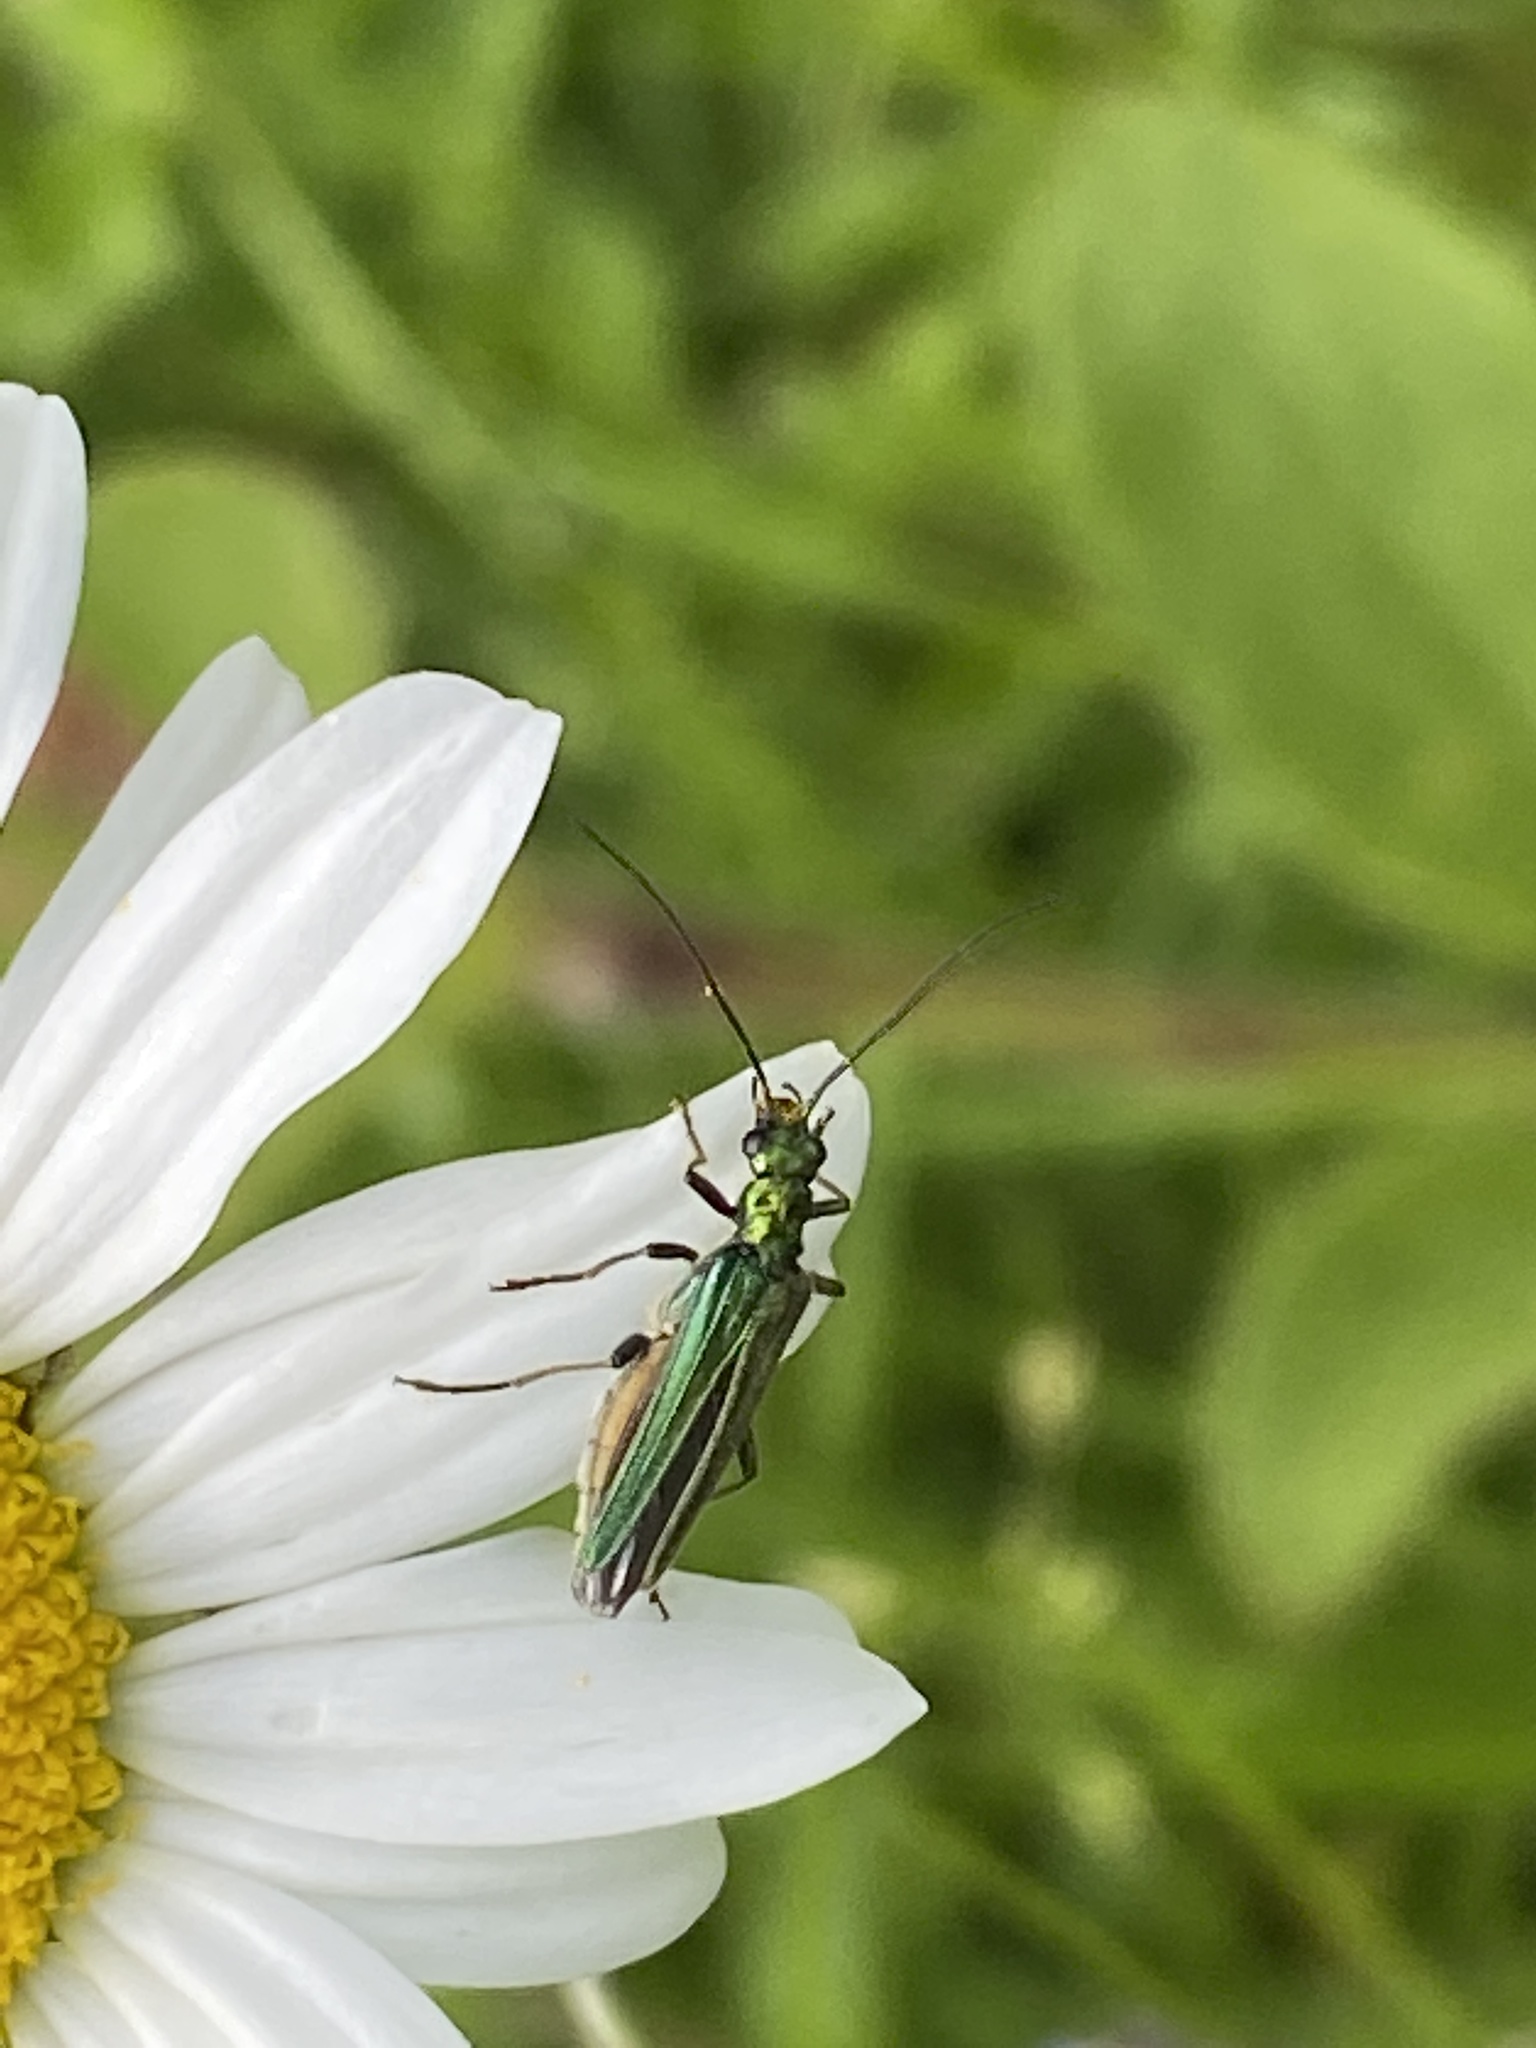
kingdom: Animalia
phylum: Arthropoda
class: Insecta
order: Coleoptera
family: Oedemeridae
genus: Oedemera
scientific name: Oedemera nobilis
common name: Swollen-thighed beetle
